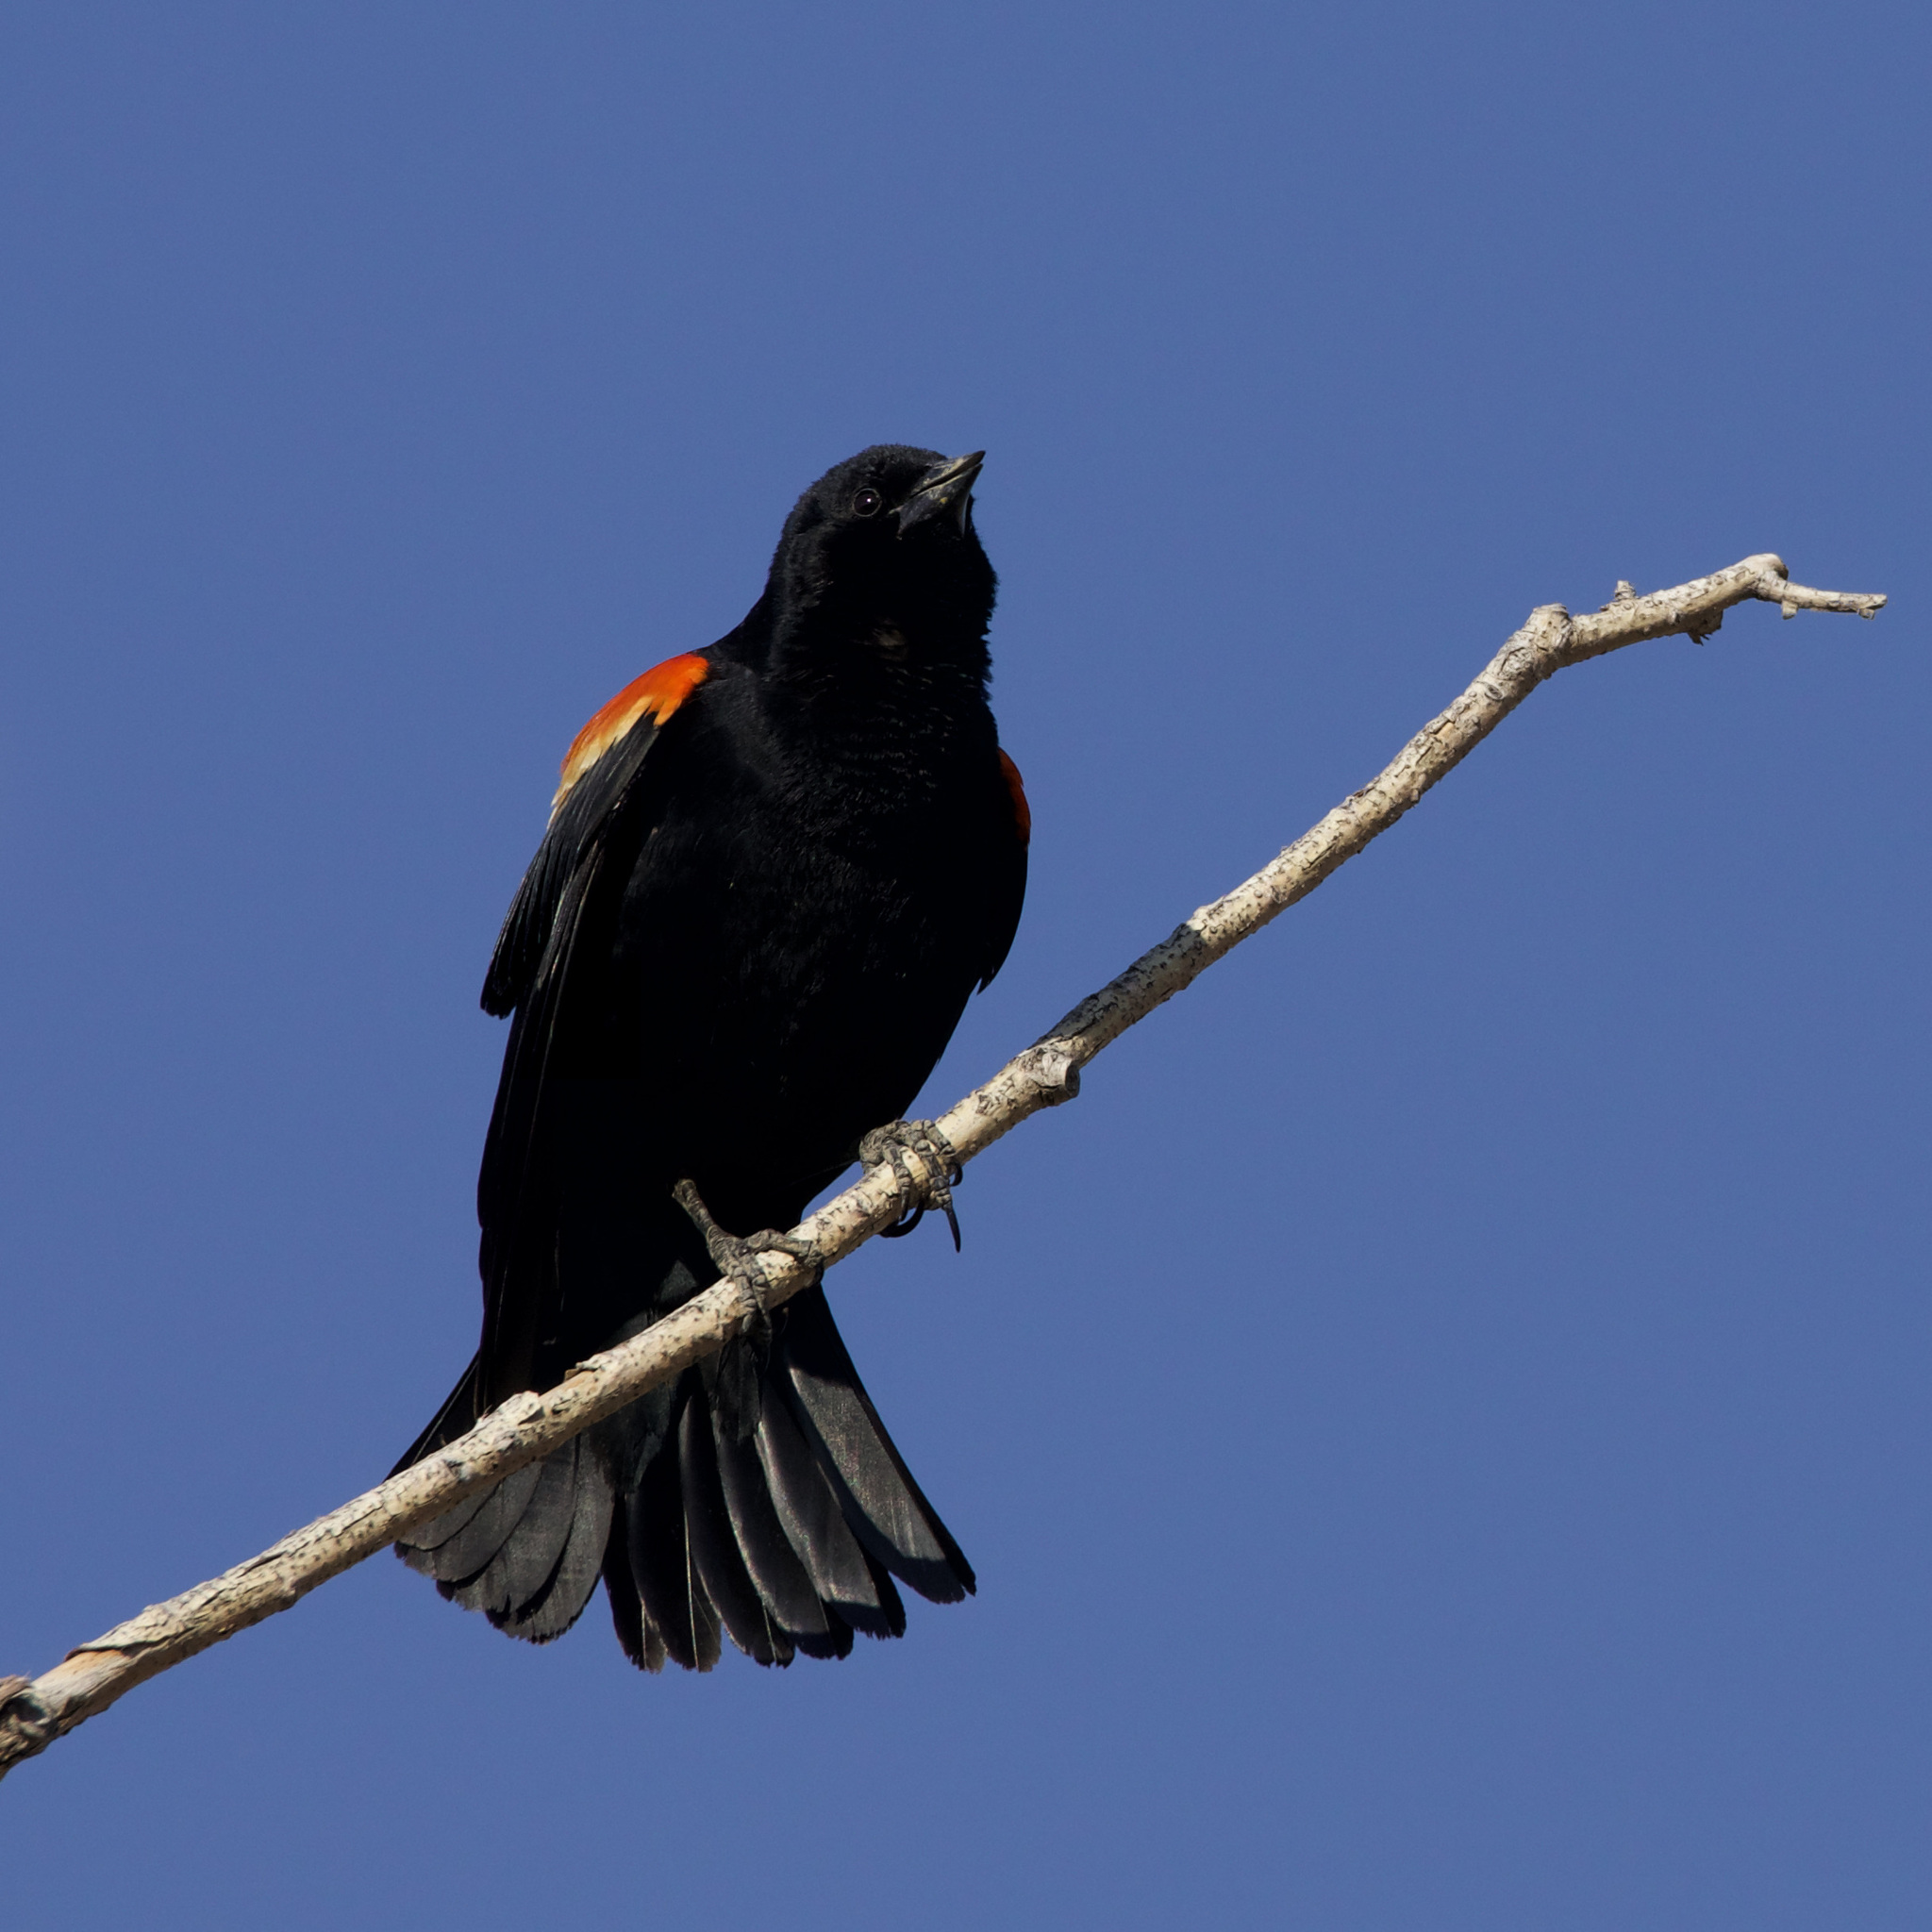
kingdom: Animalia
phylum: Chordata
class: Aves
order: Passeriformes
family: Icteridae
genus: Agelaius
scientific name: Agelaius phoeniceus
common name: Red-winged blackbird
